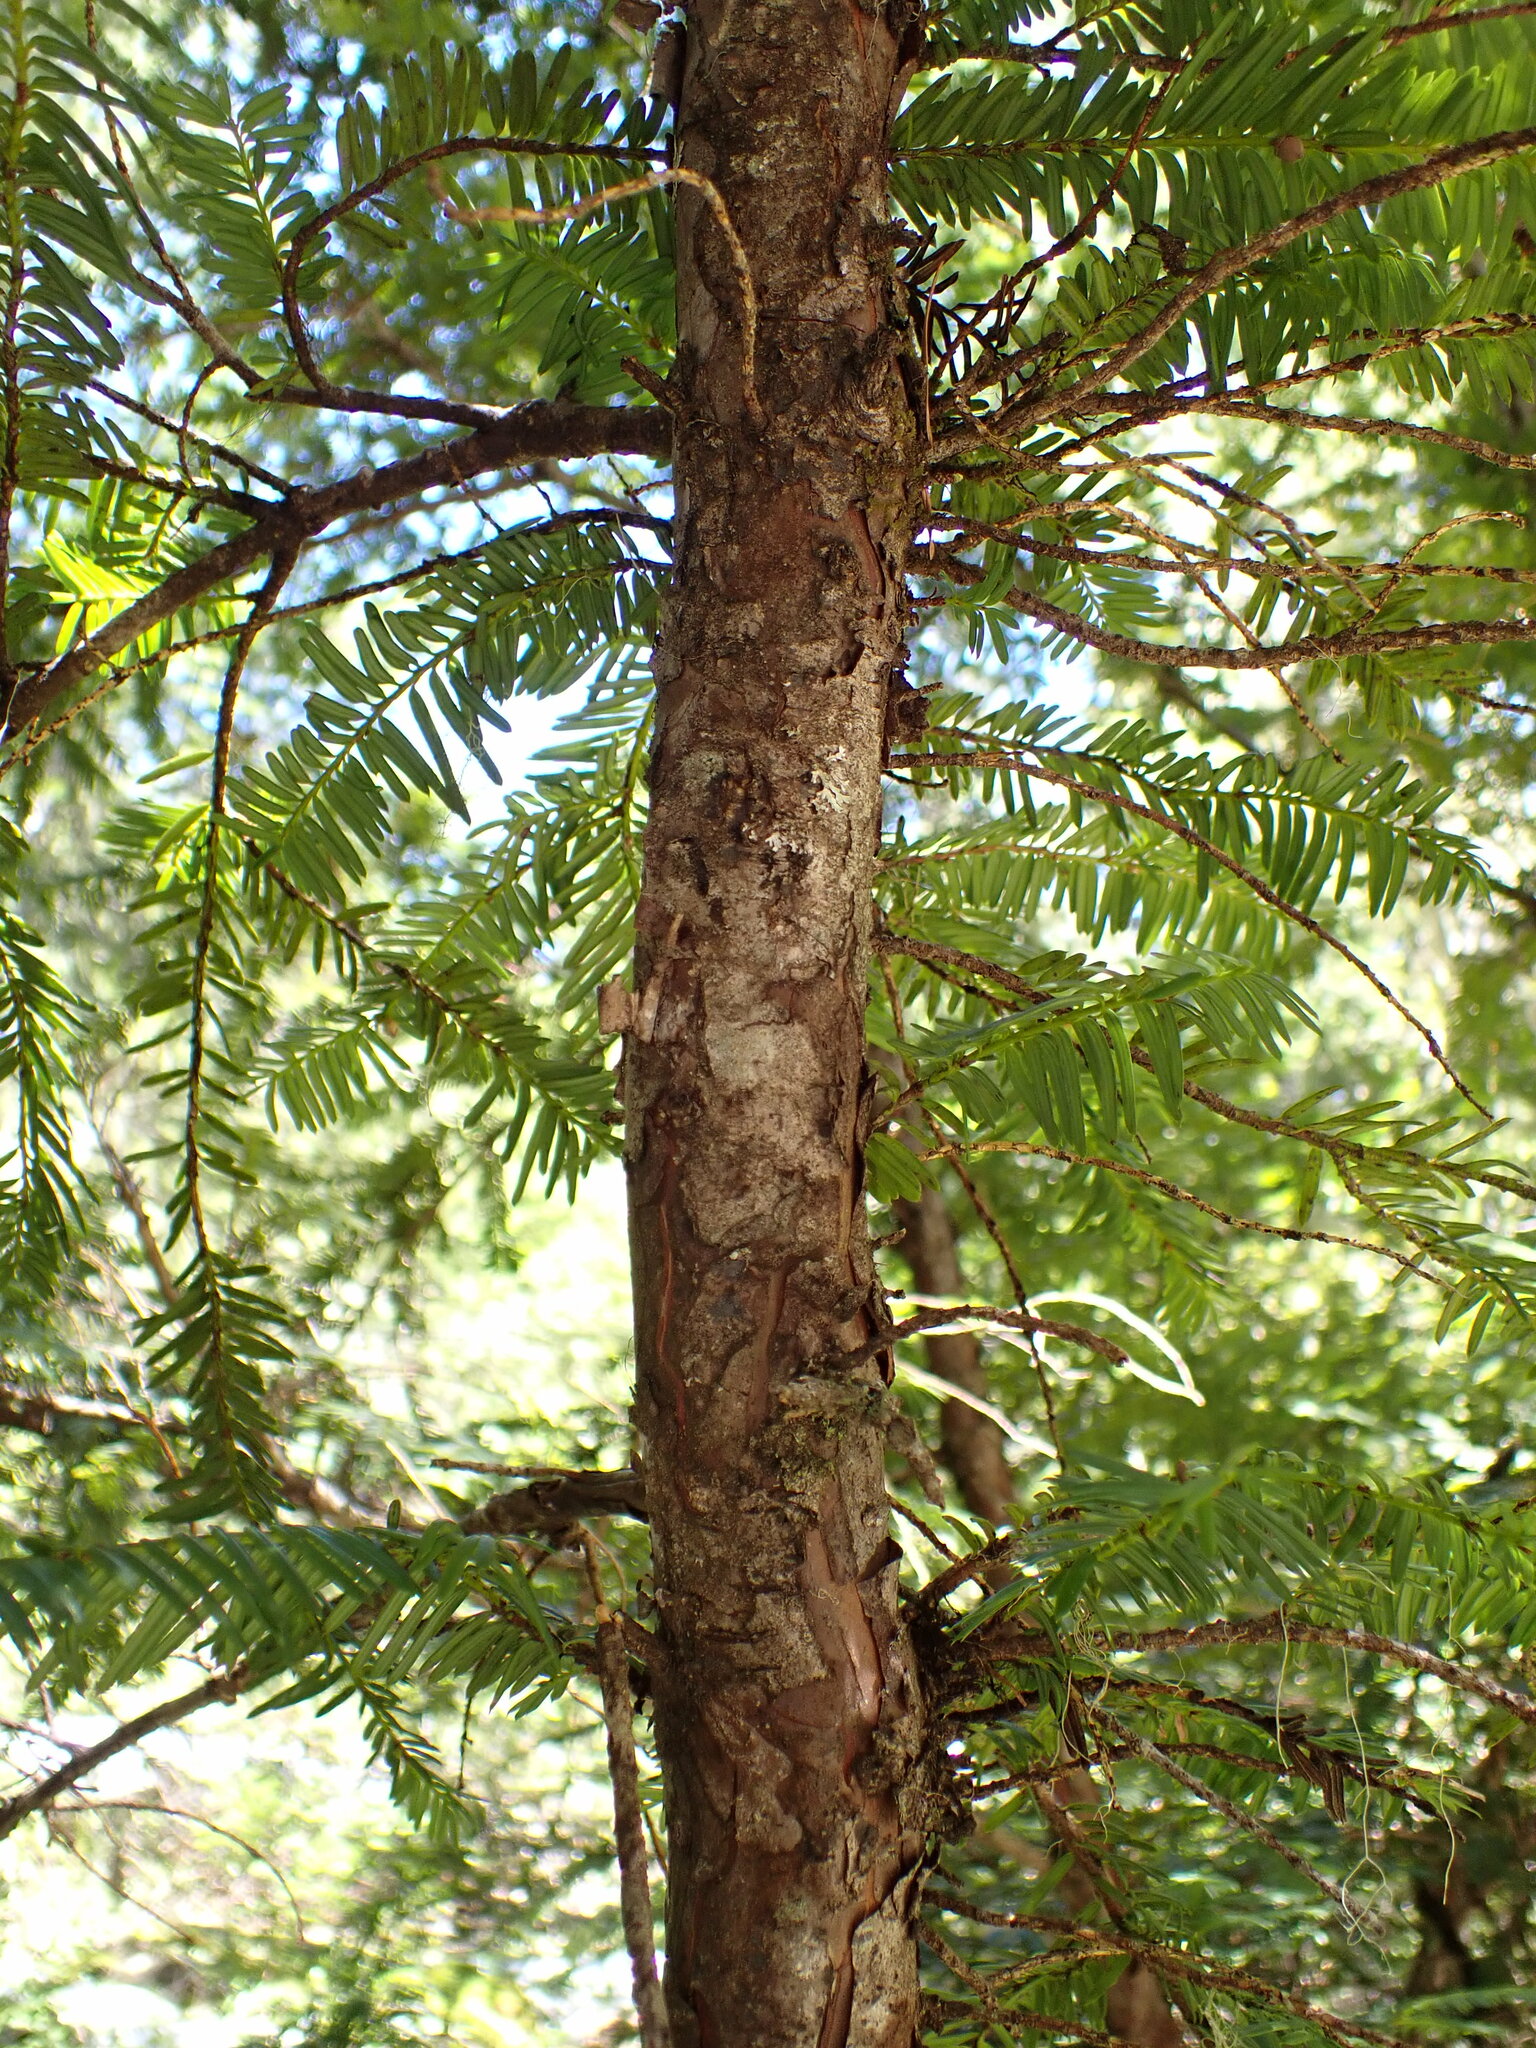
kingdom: Plantae
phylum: Tracheophyta
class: Pinopsida
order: Pinales
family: Taxaceae
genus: Taxus
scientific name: Taxus brevifolia
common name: Pacific yew
